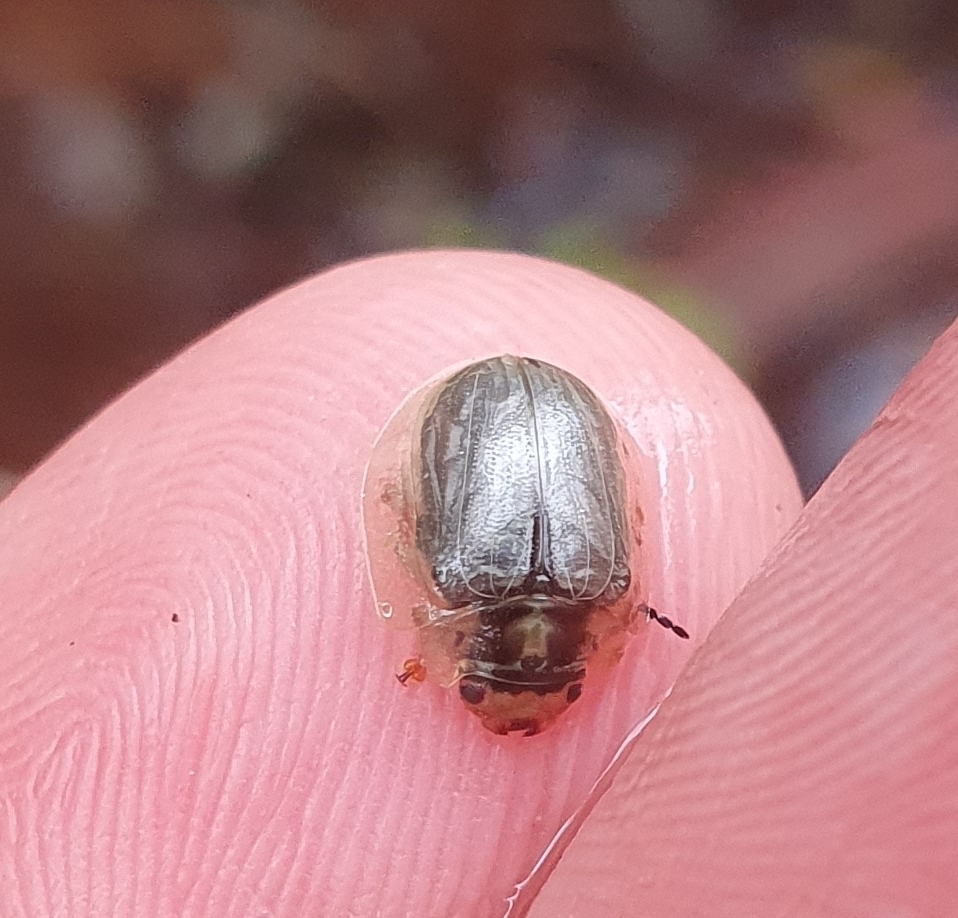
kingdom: Animalia
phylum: Arthropoda
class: Insecta
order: Coleoptera
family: Chrysomelidae
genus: Paropsisterna
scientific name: Paropsisterna bimaculata
